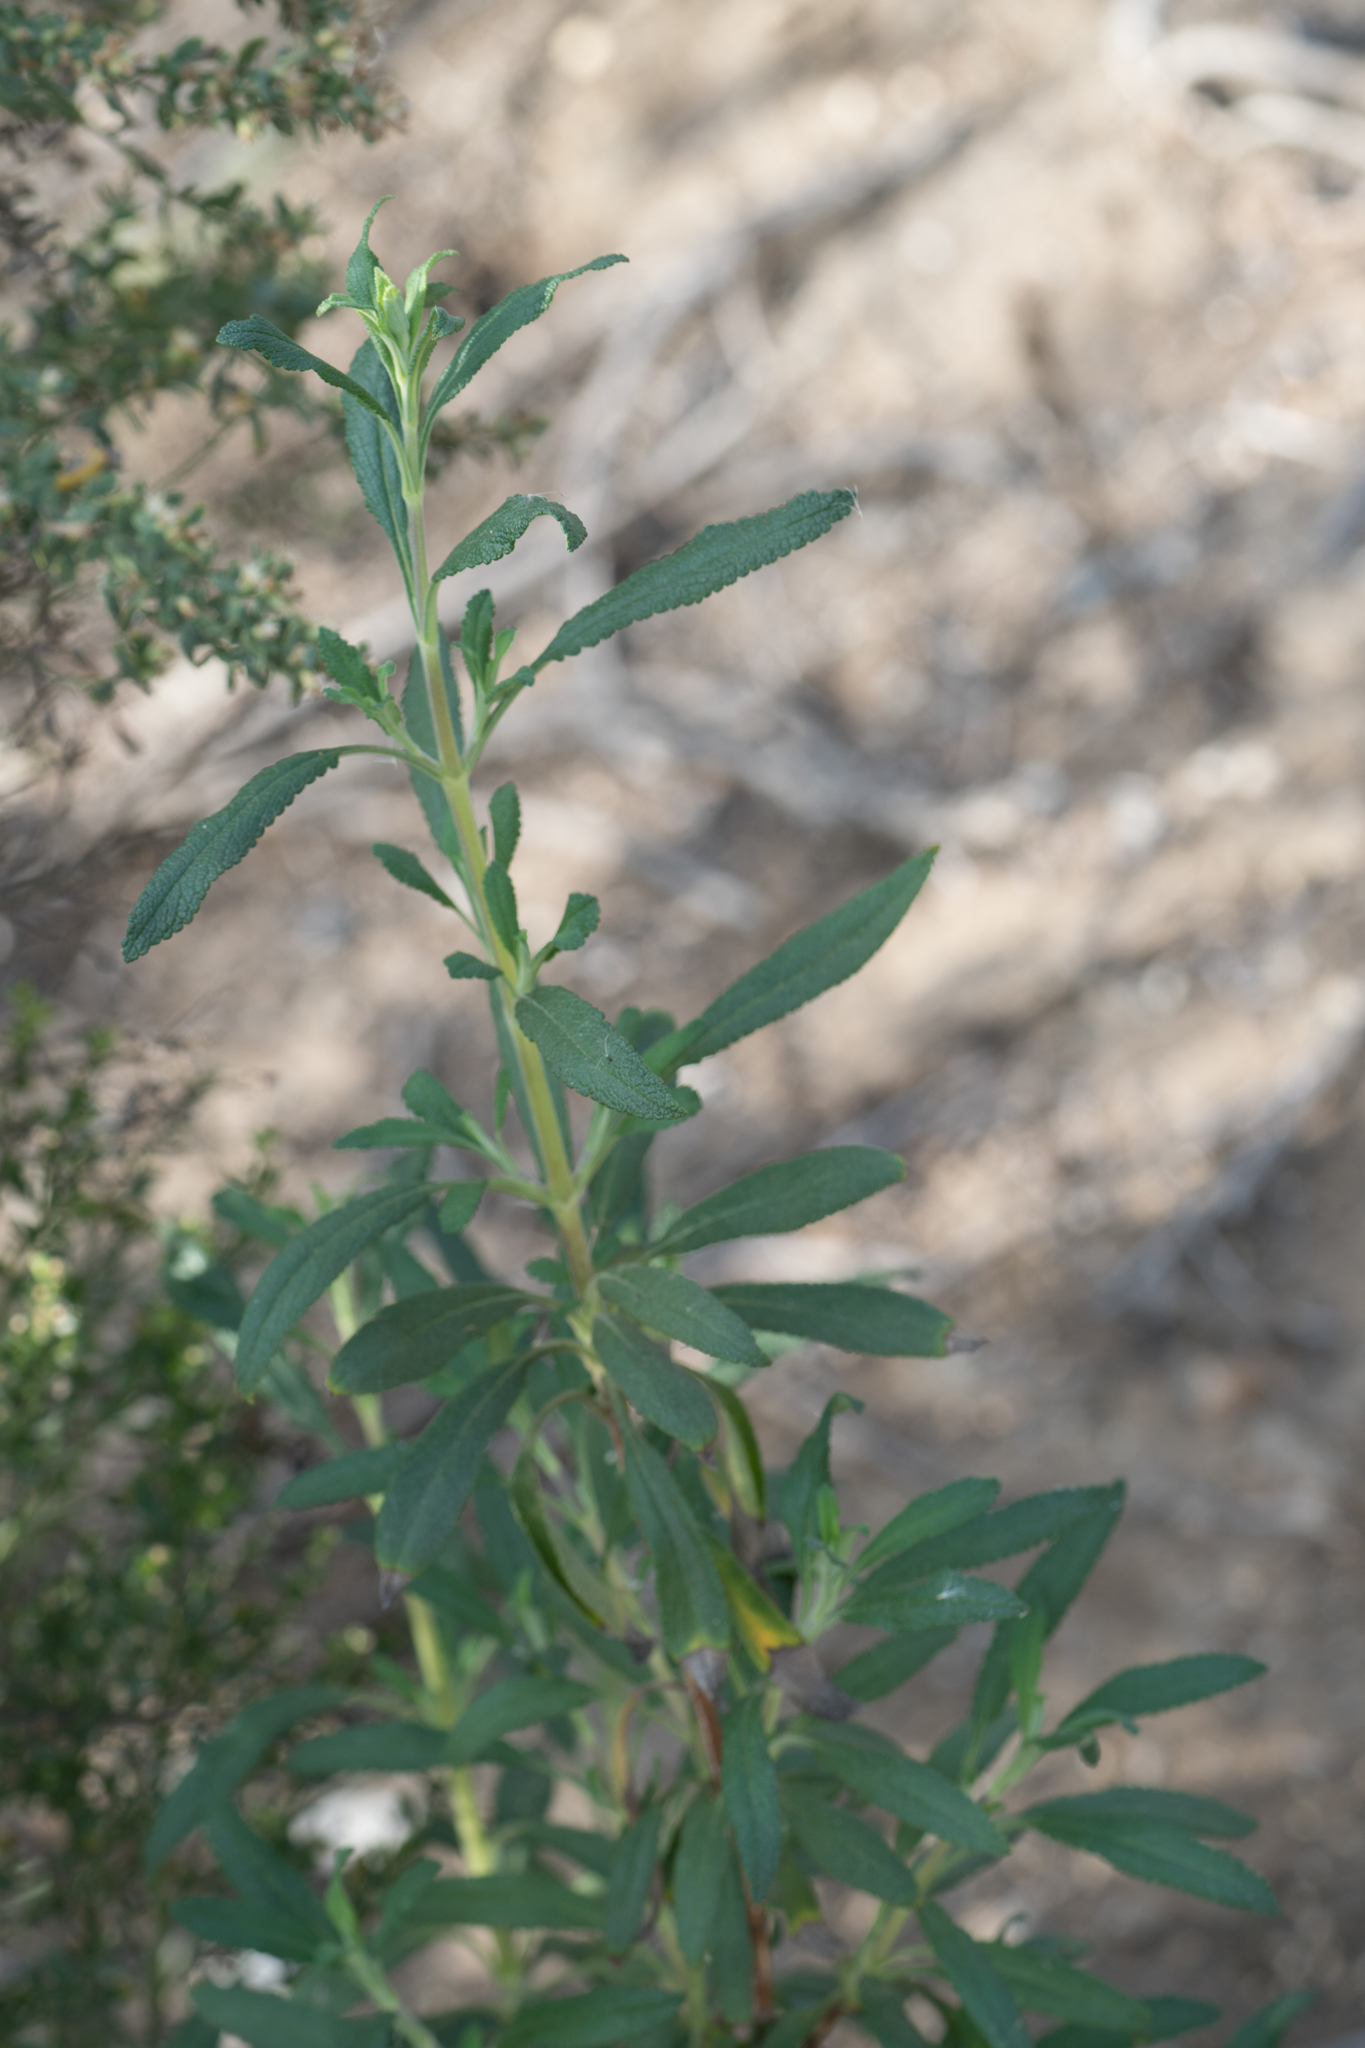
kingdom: Plantae
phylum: Tracheophyta
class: Magnoliopsida
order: Lamiales
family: Lamiaceae
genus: Salvia
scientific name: Salvia mellifera
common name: Black sage
